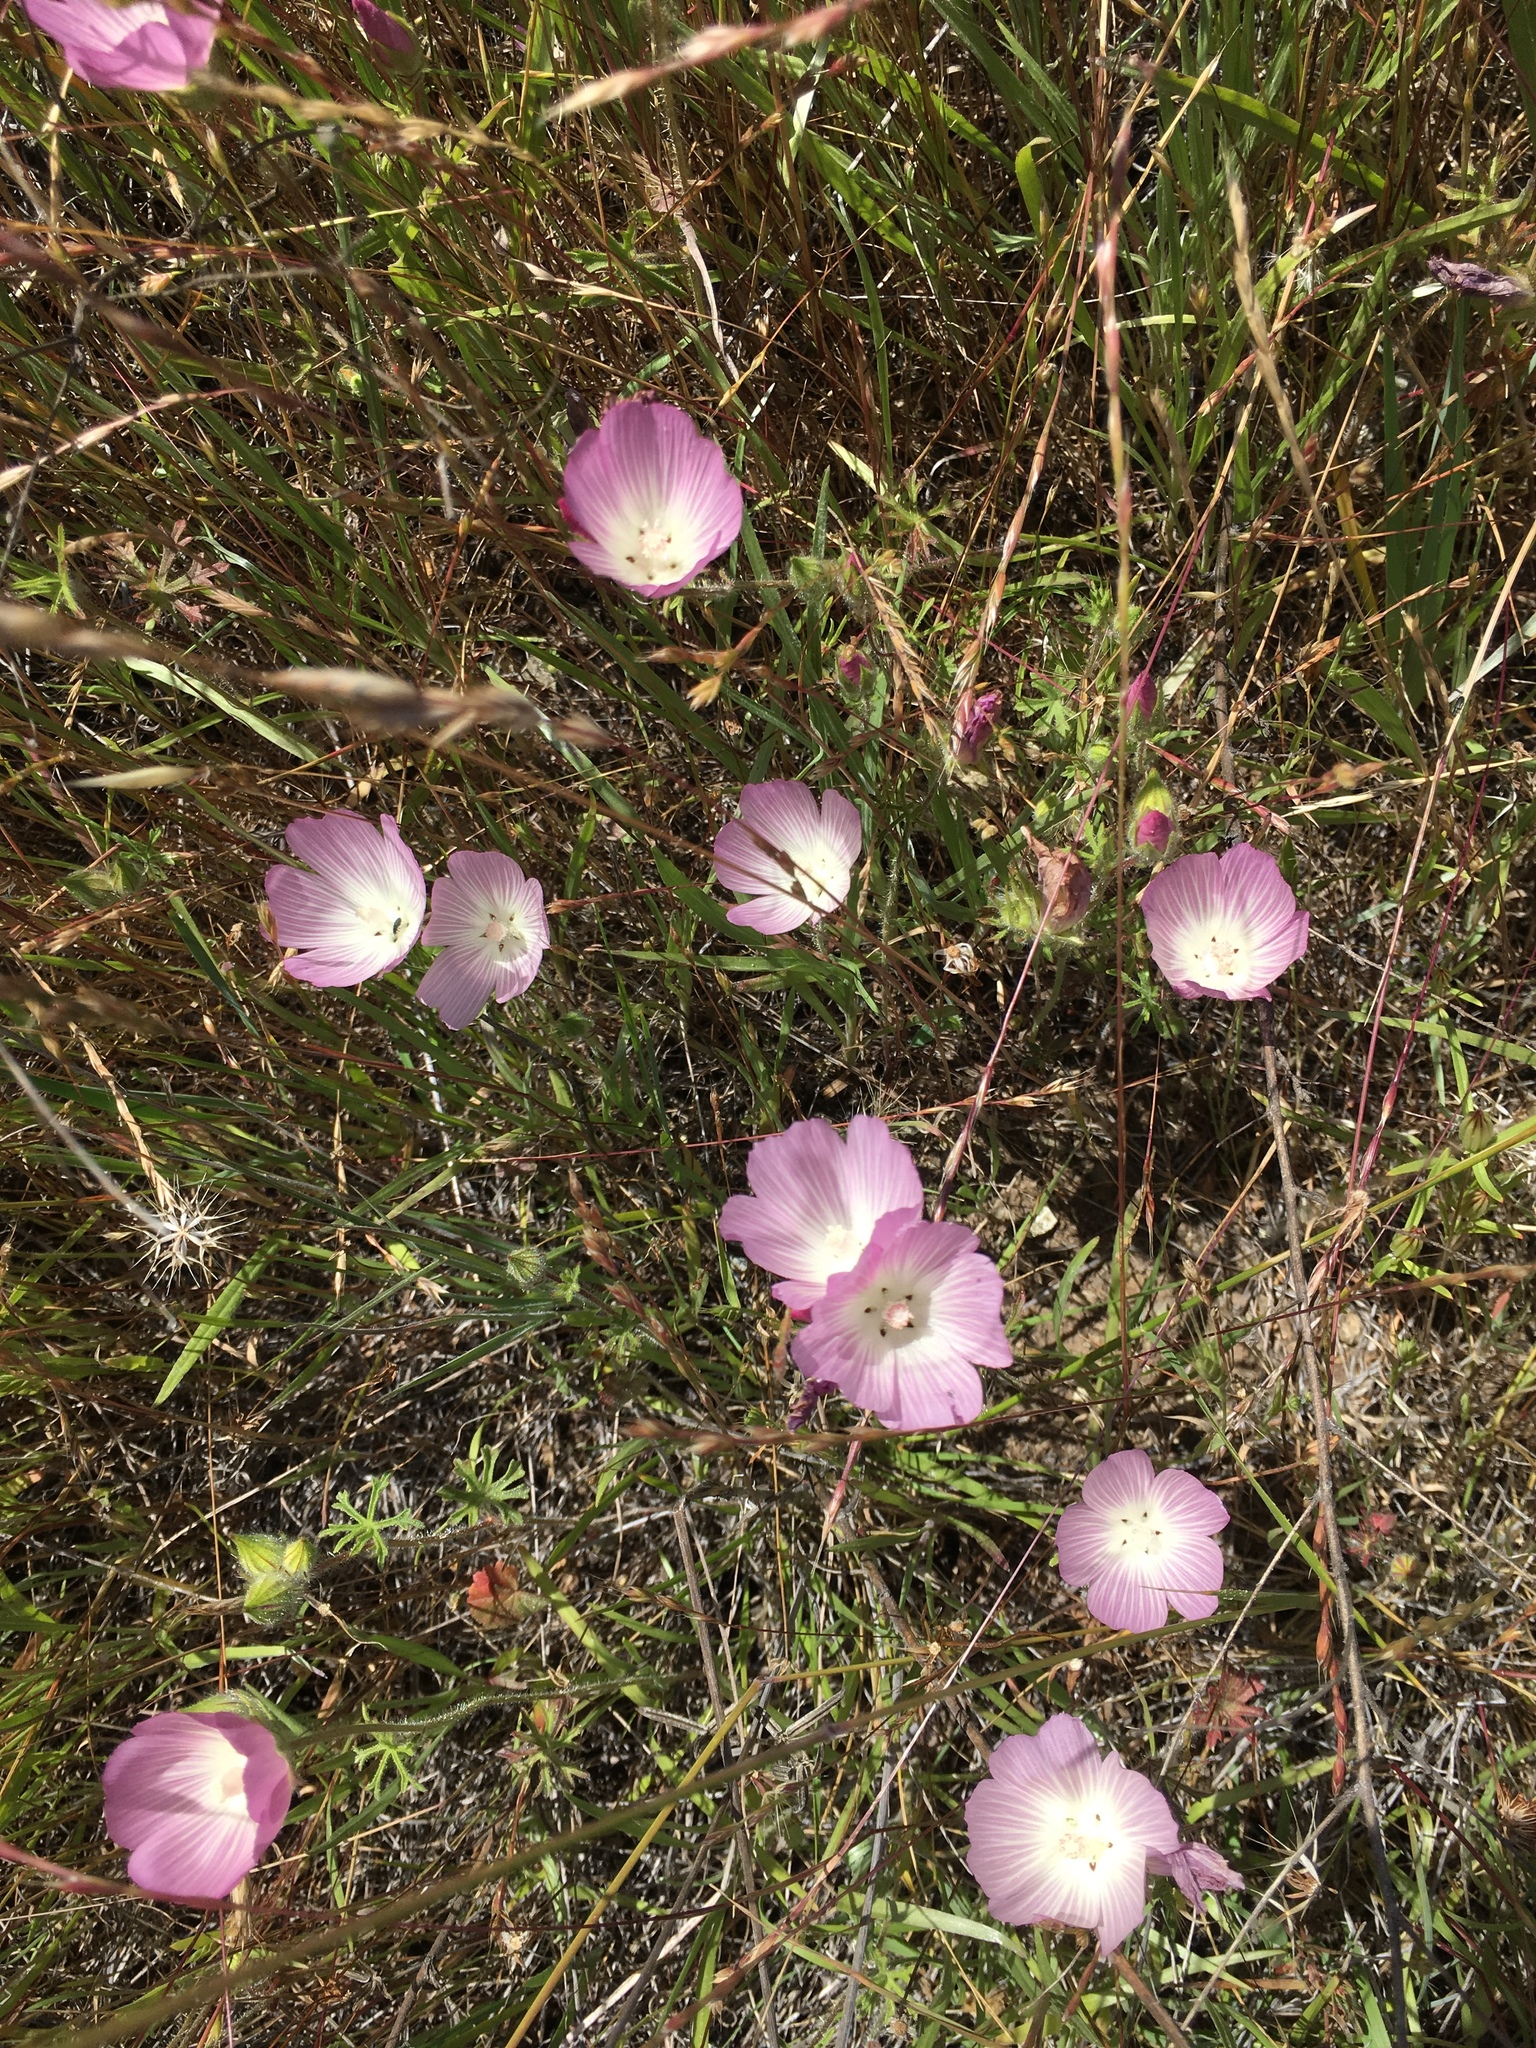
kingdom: Plantae
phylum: Tracheophyta
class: Magnoliopsida
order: Malvales
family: Malvaceae
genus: Sidalcea
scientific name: Sidalcea diploscypha
